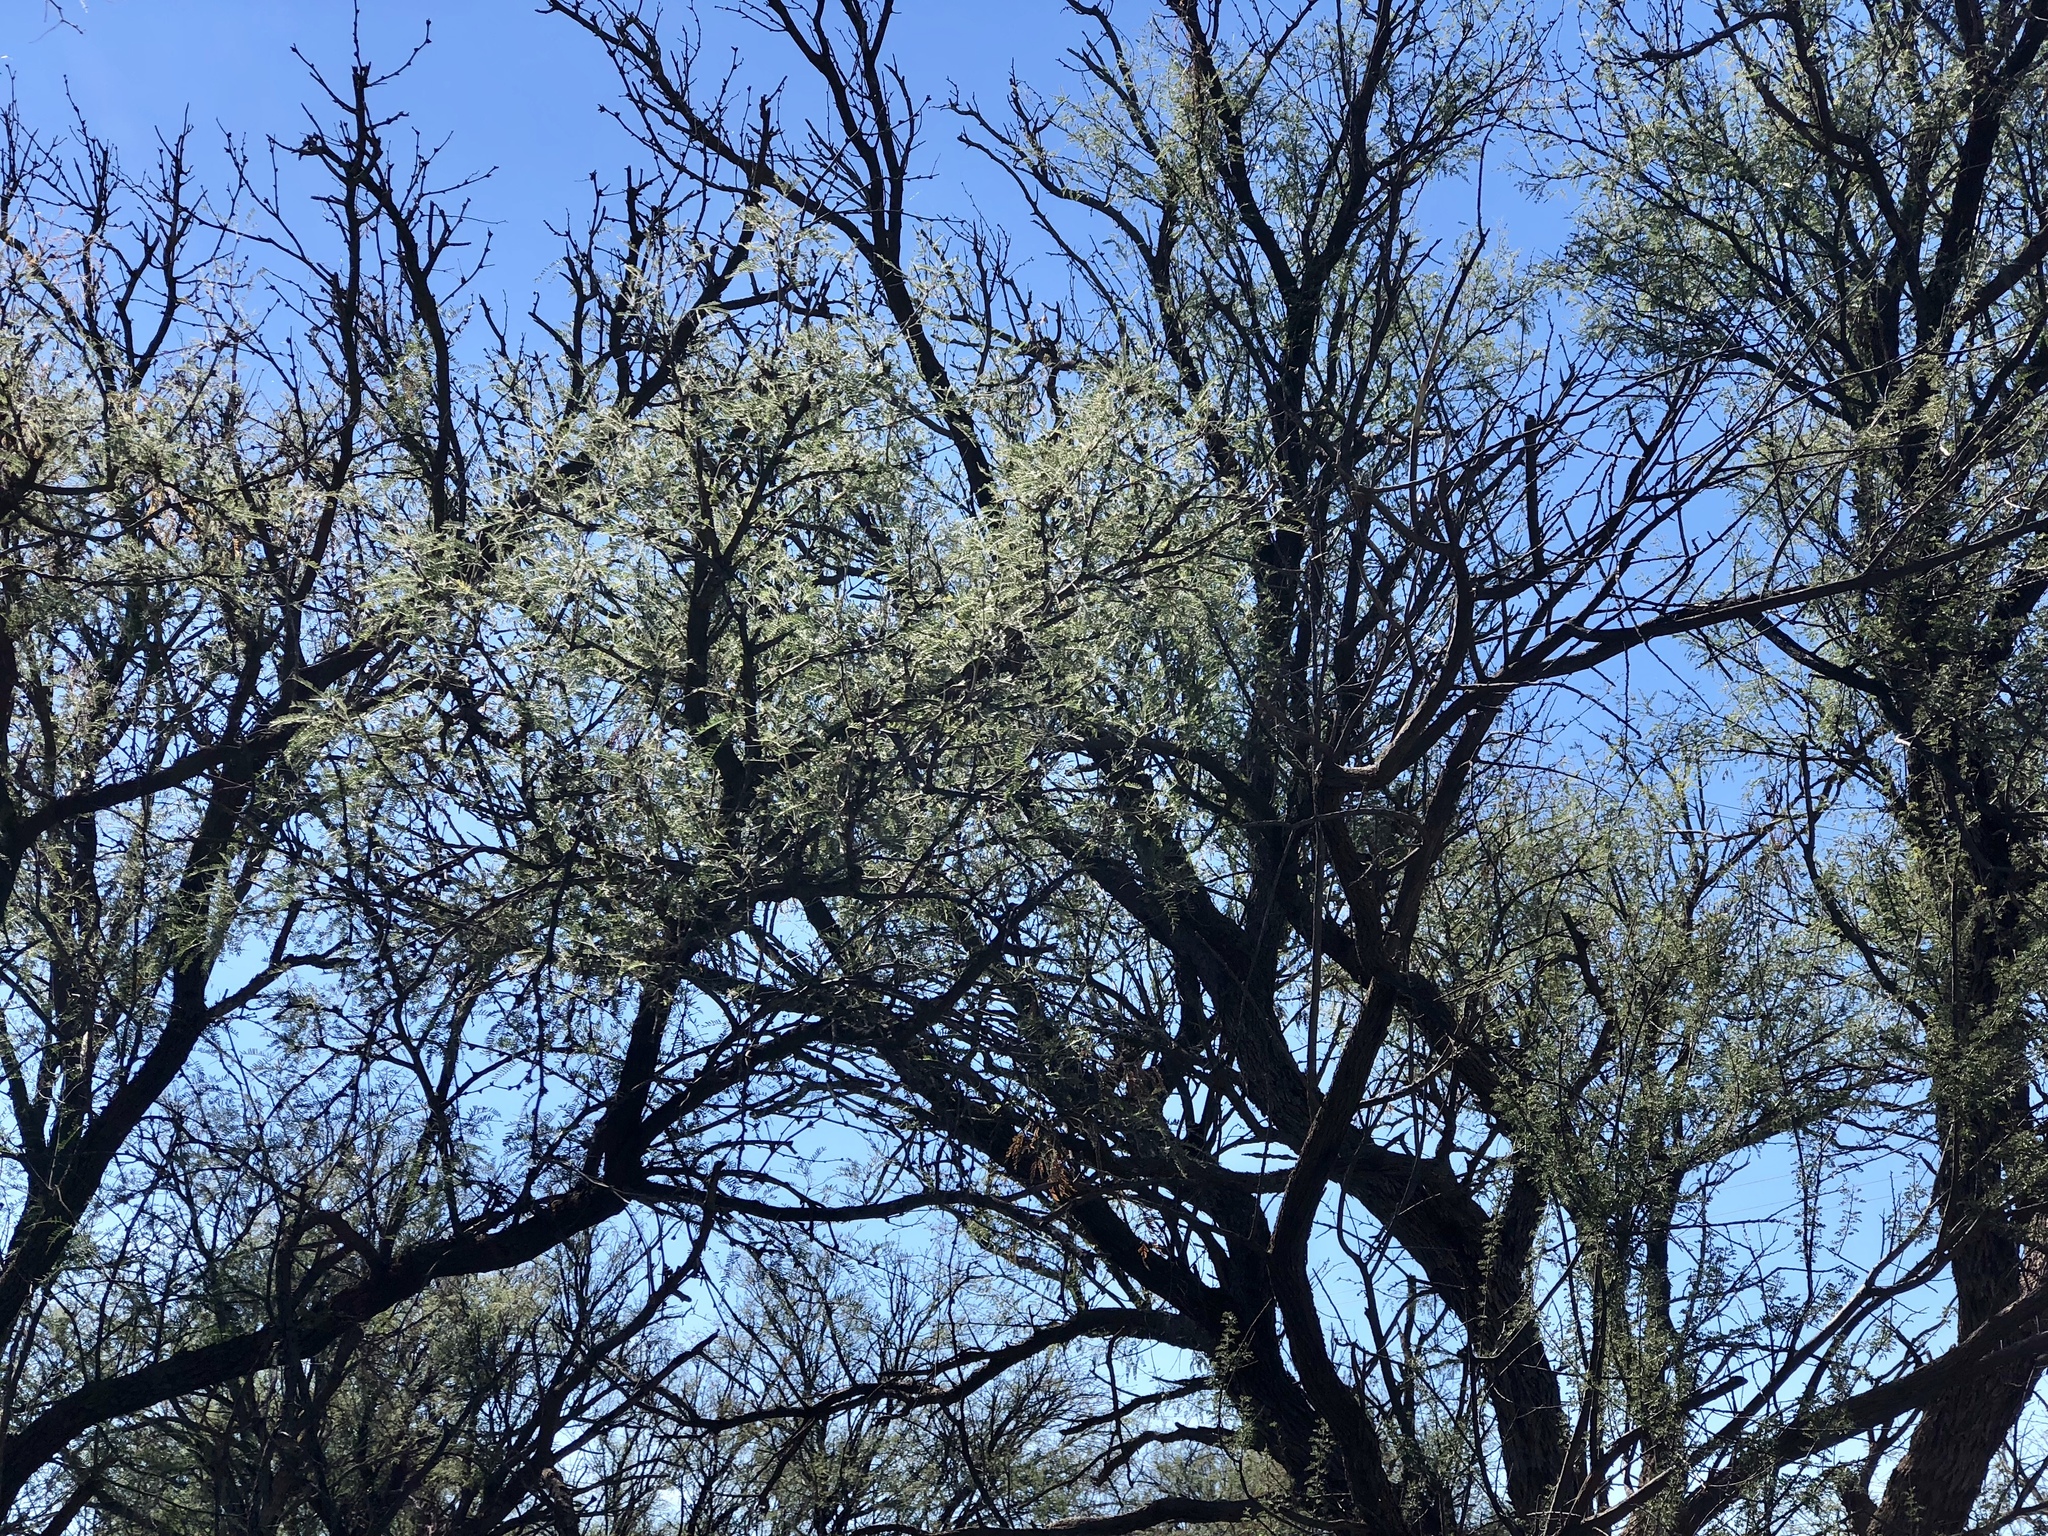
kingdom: Plantae
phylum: Tracheophyta
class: Magnoliopsida
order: Fabales
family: Fabaceae
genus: Prosopis
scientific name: Prosopis velutina
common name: Velvet mesquite
